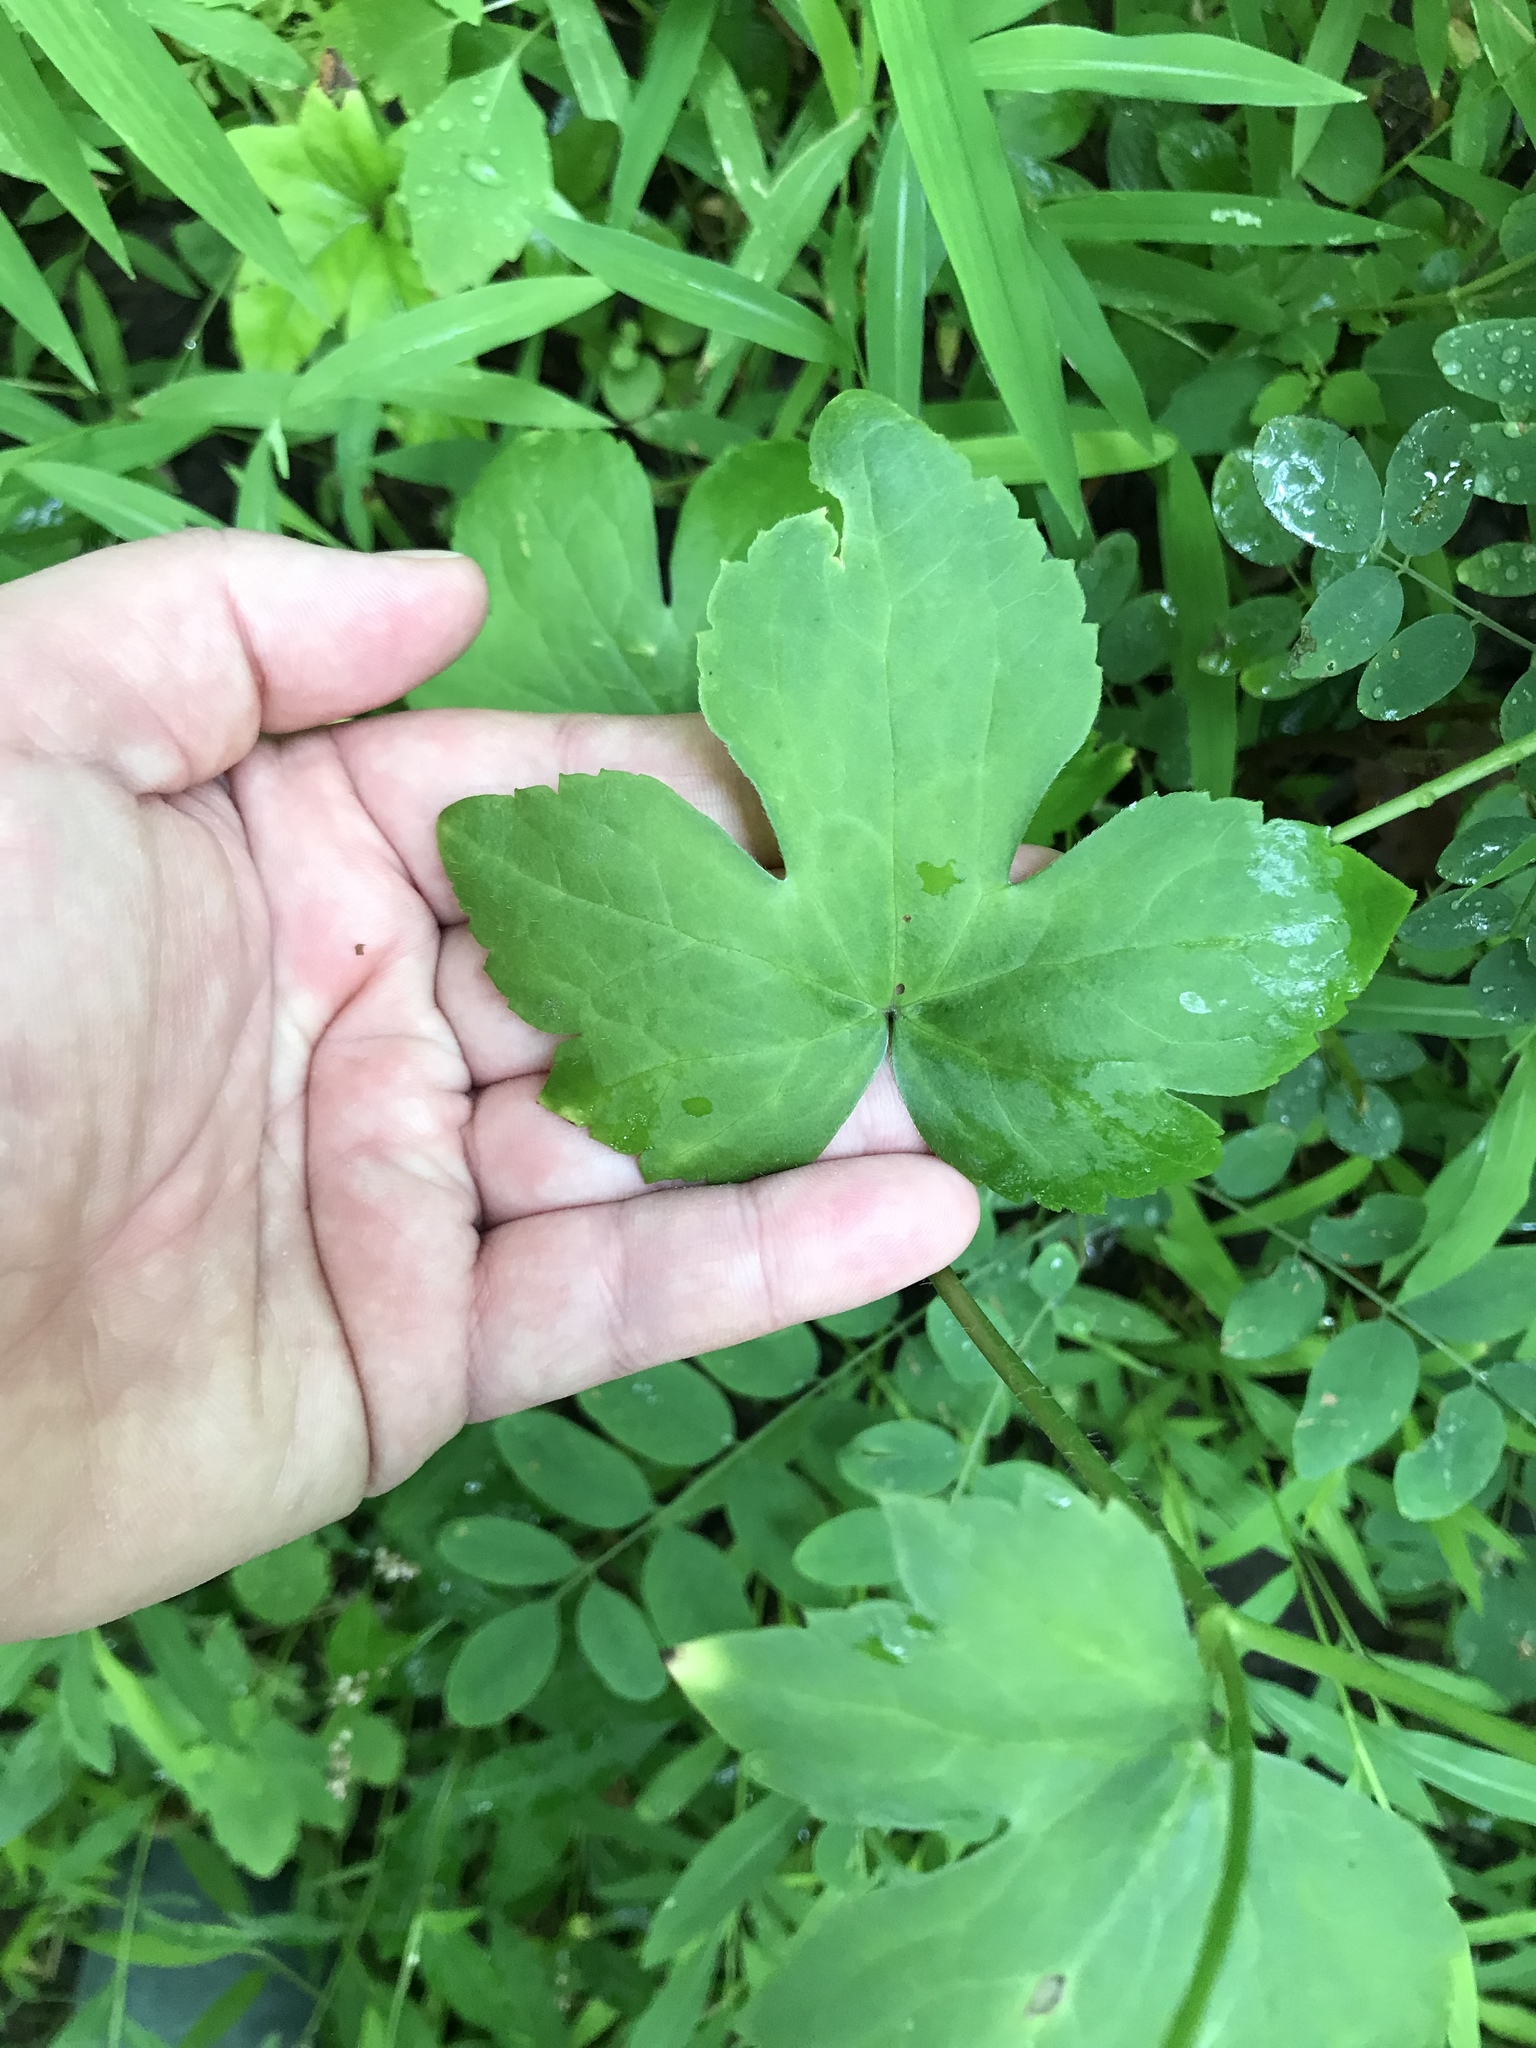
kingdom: Plantae
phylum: Tracheophyta
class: Magnoliopsida
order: Ranunculales
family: Ranunculaceae
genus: Ranunculus
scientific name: Ranunculus recurvatus
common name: Blisterwort
